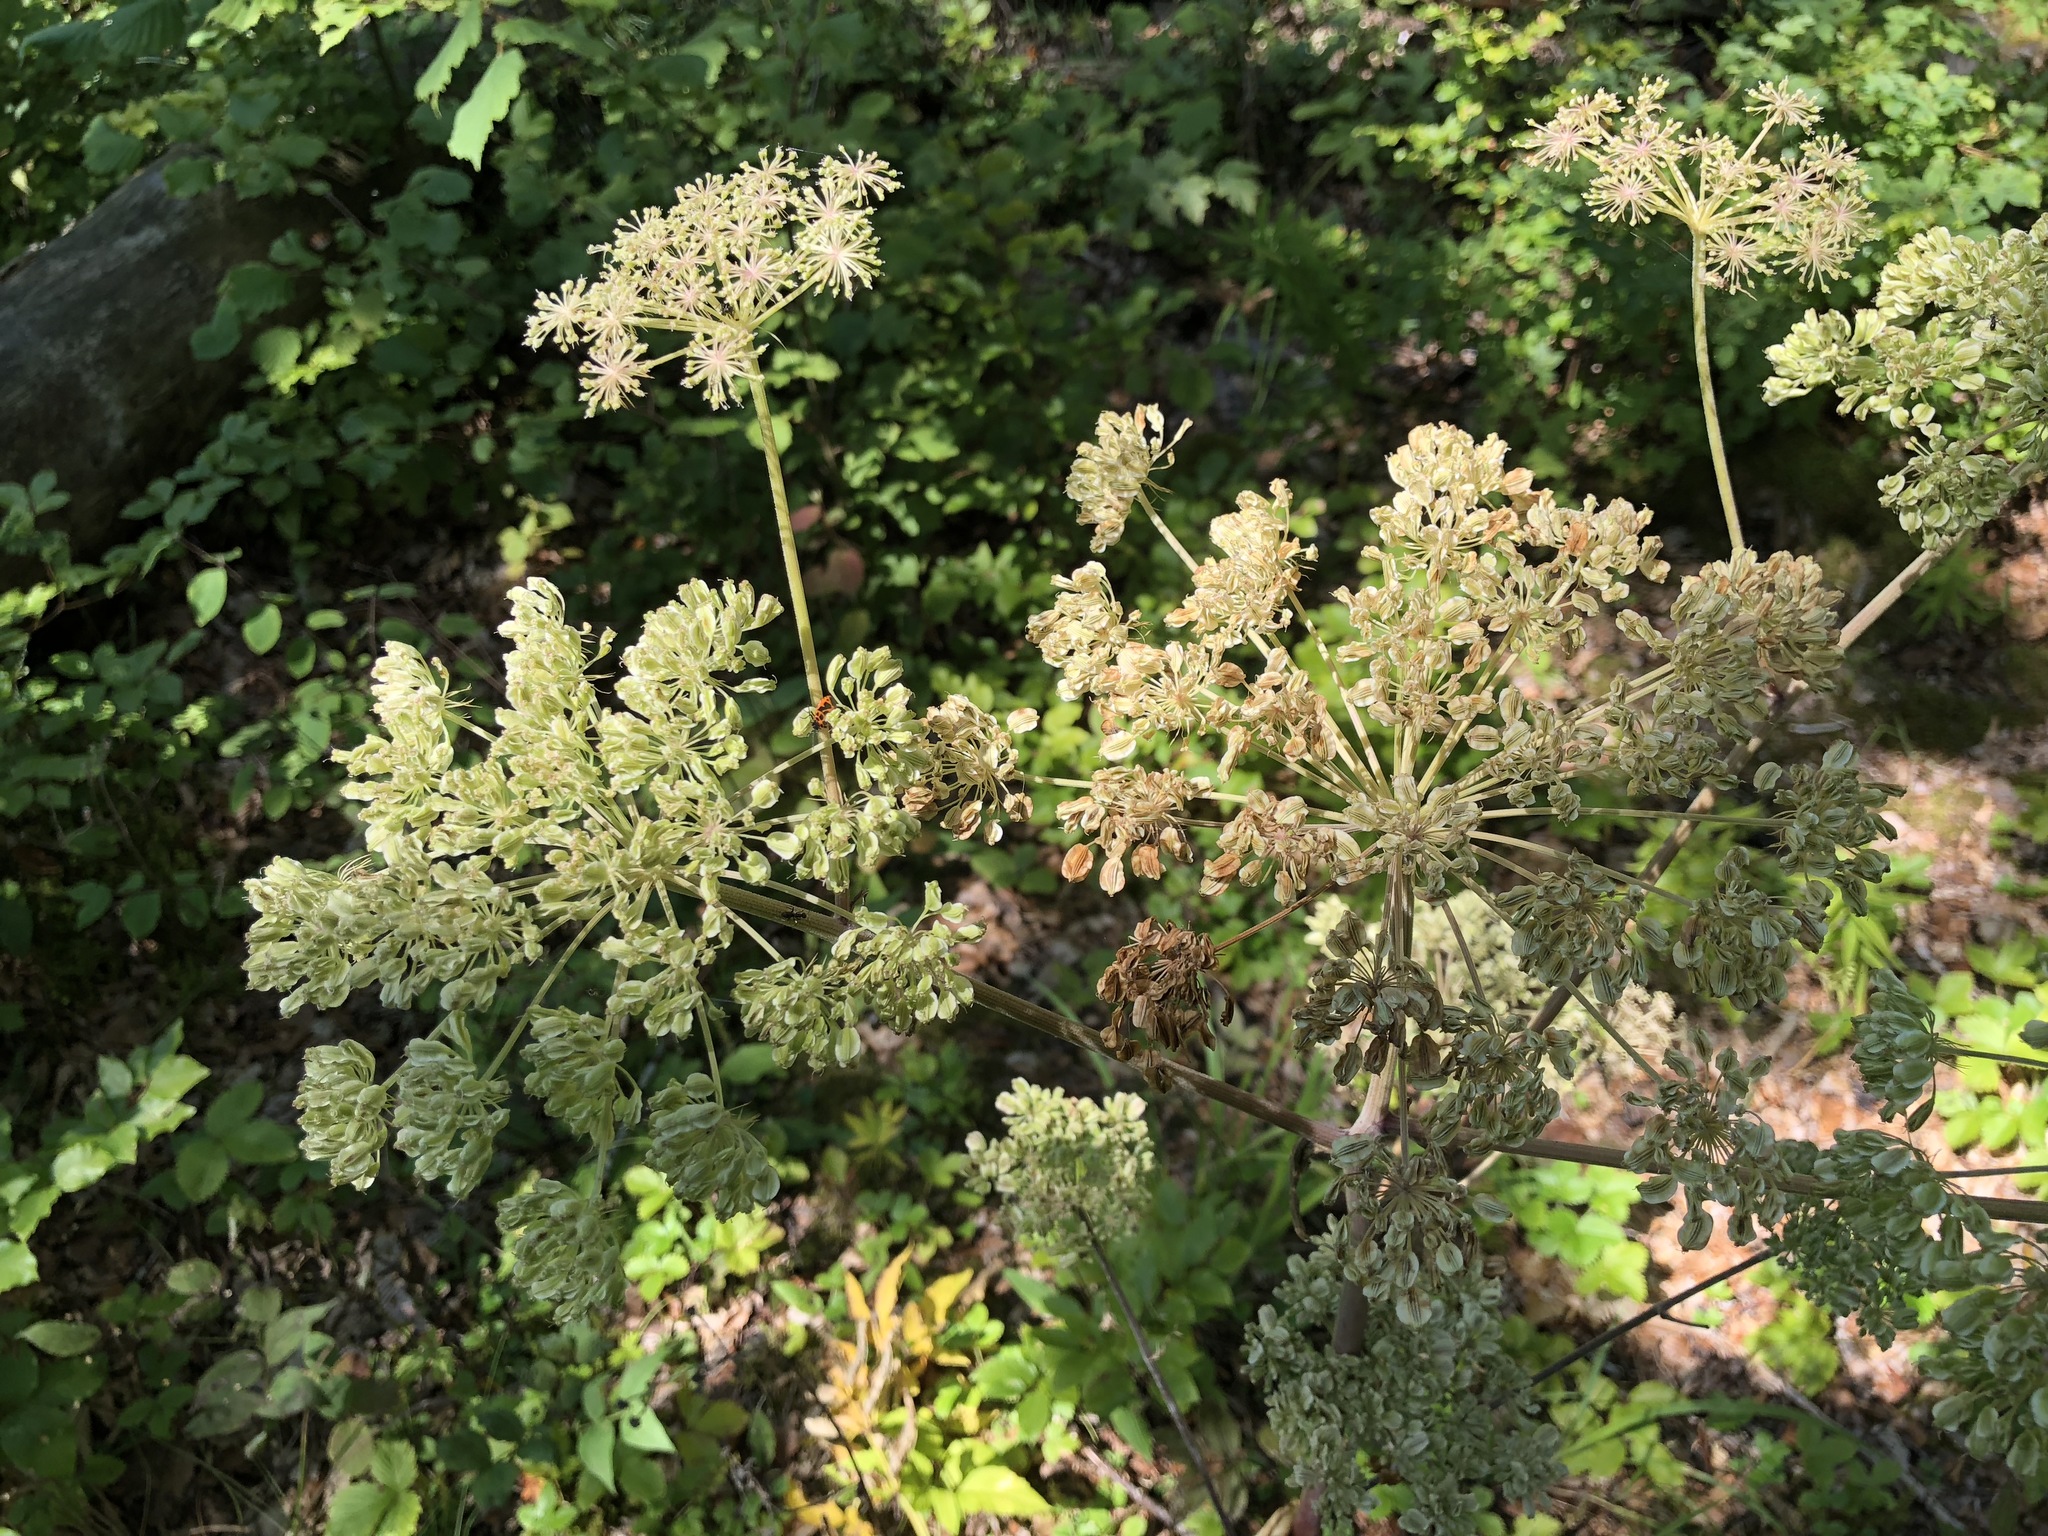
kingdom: Plantae
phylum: Tracheophyta
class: Magnoliopsida
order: Apiales
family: Apiaceae
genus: Angelica
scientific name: Angelica sylvestris
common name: Wild angelica
